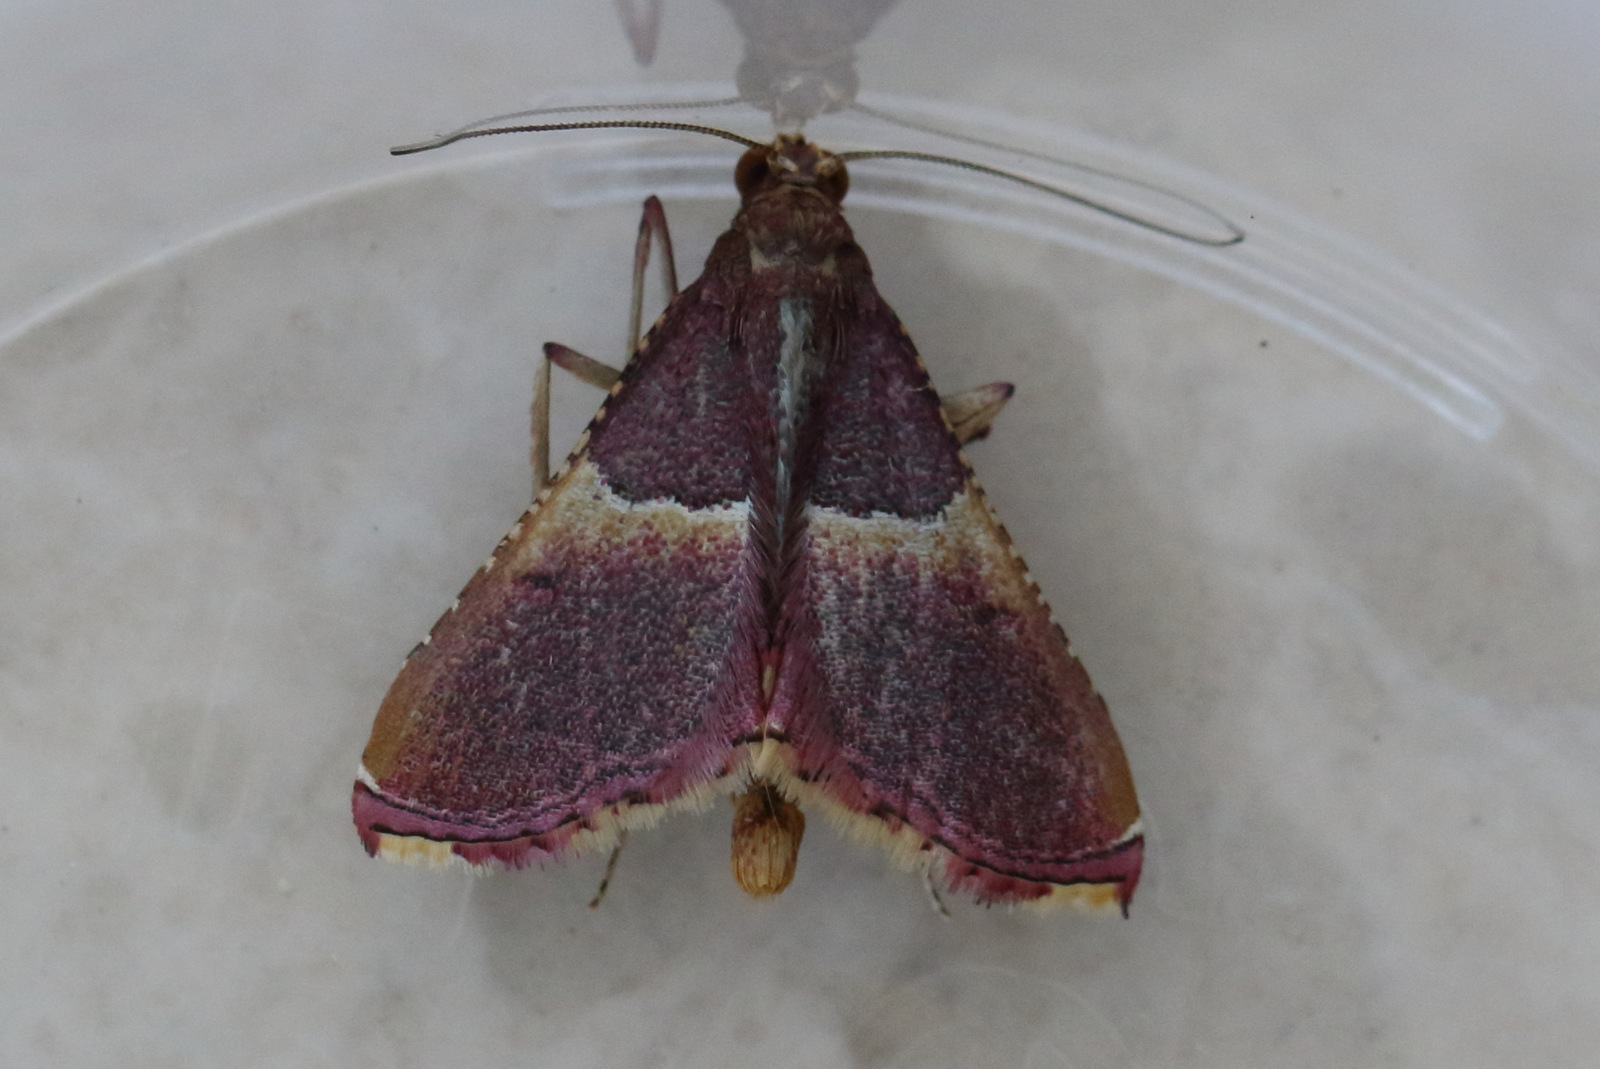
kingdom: Animalia
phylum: Arthropoda
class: Insecta
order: Lepidoptera
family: Pyralidae
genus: Endotricha
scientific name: Endotricha mesenterialis
